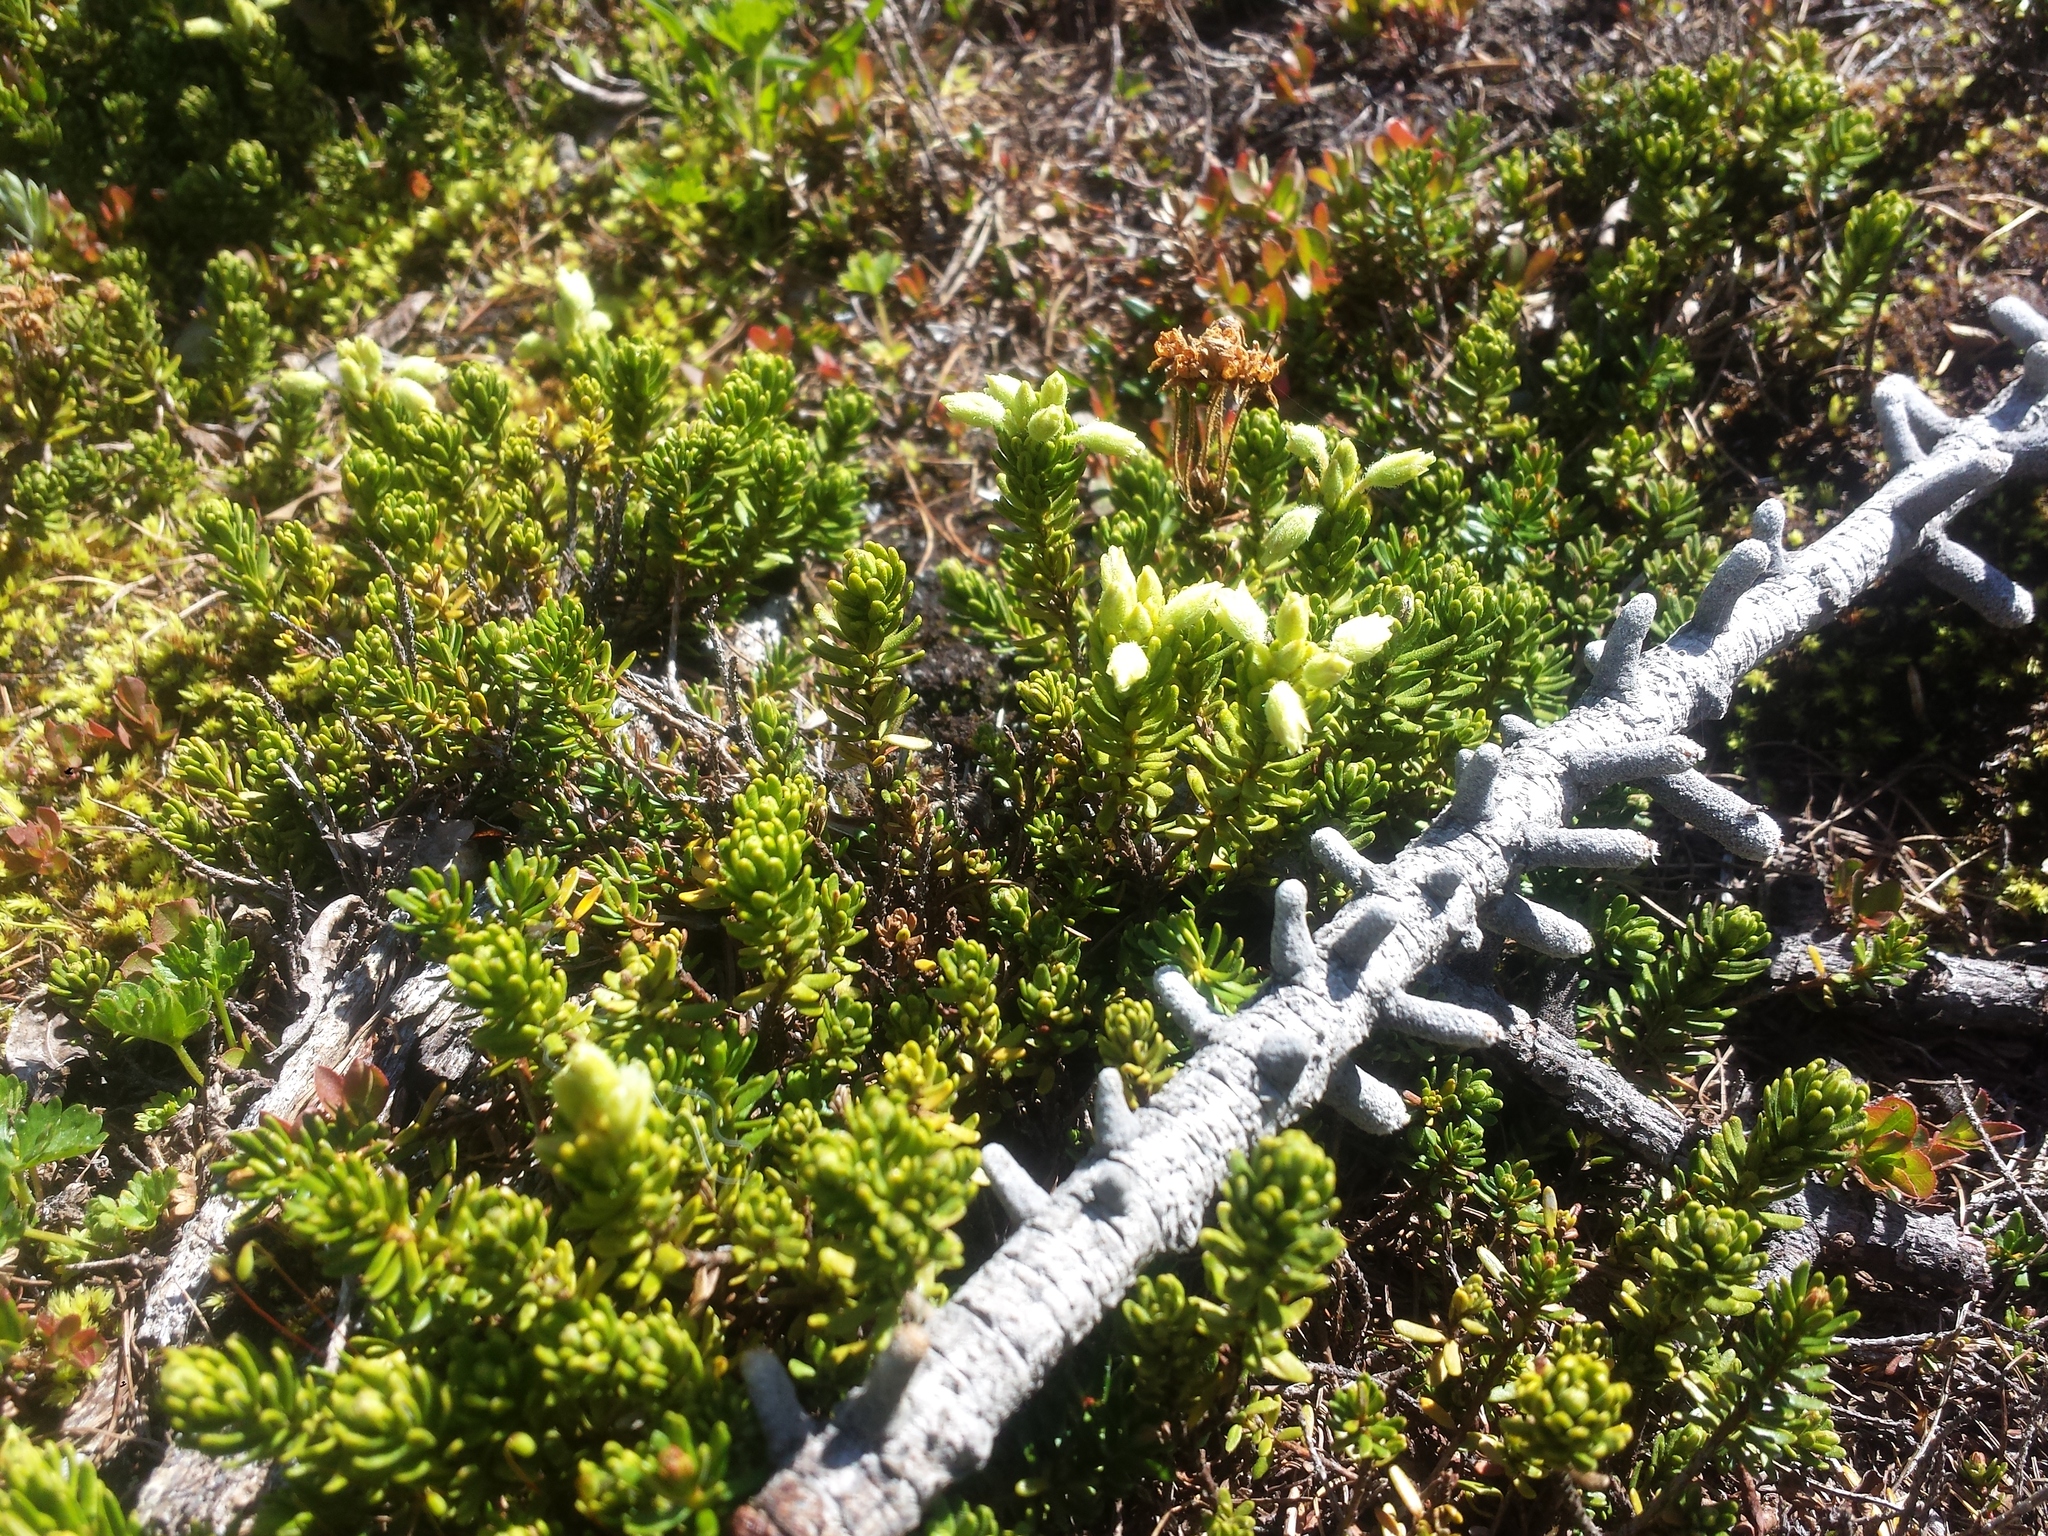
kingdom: Plantae
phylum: Tracheophyta
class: Magnoliopsida
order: Ericales
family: Ericaceae
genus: Phyllodoce
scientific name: Phyllodoce glanduliflora
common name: Cream mountain heather
